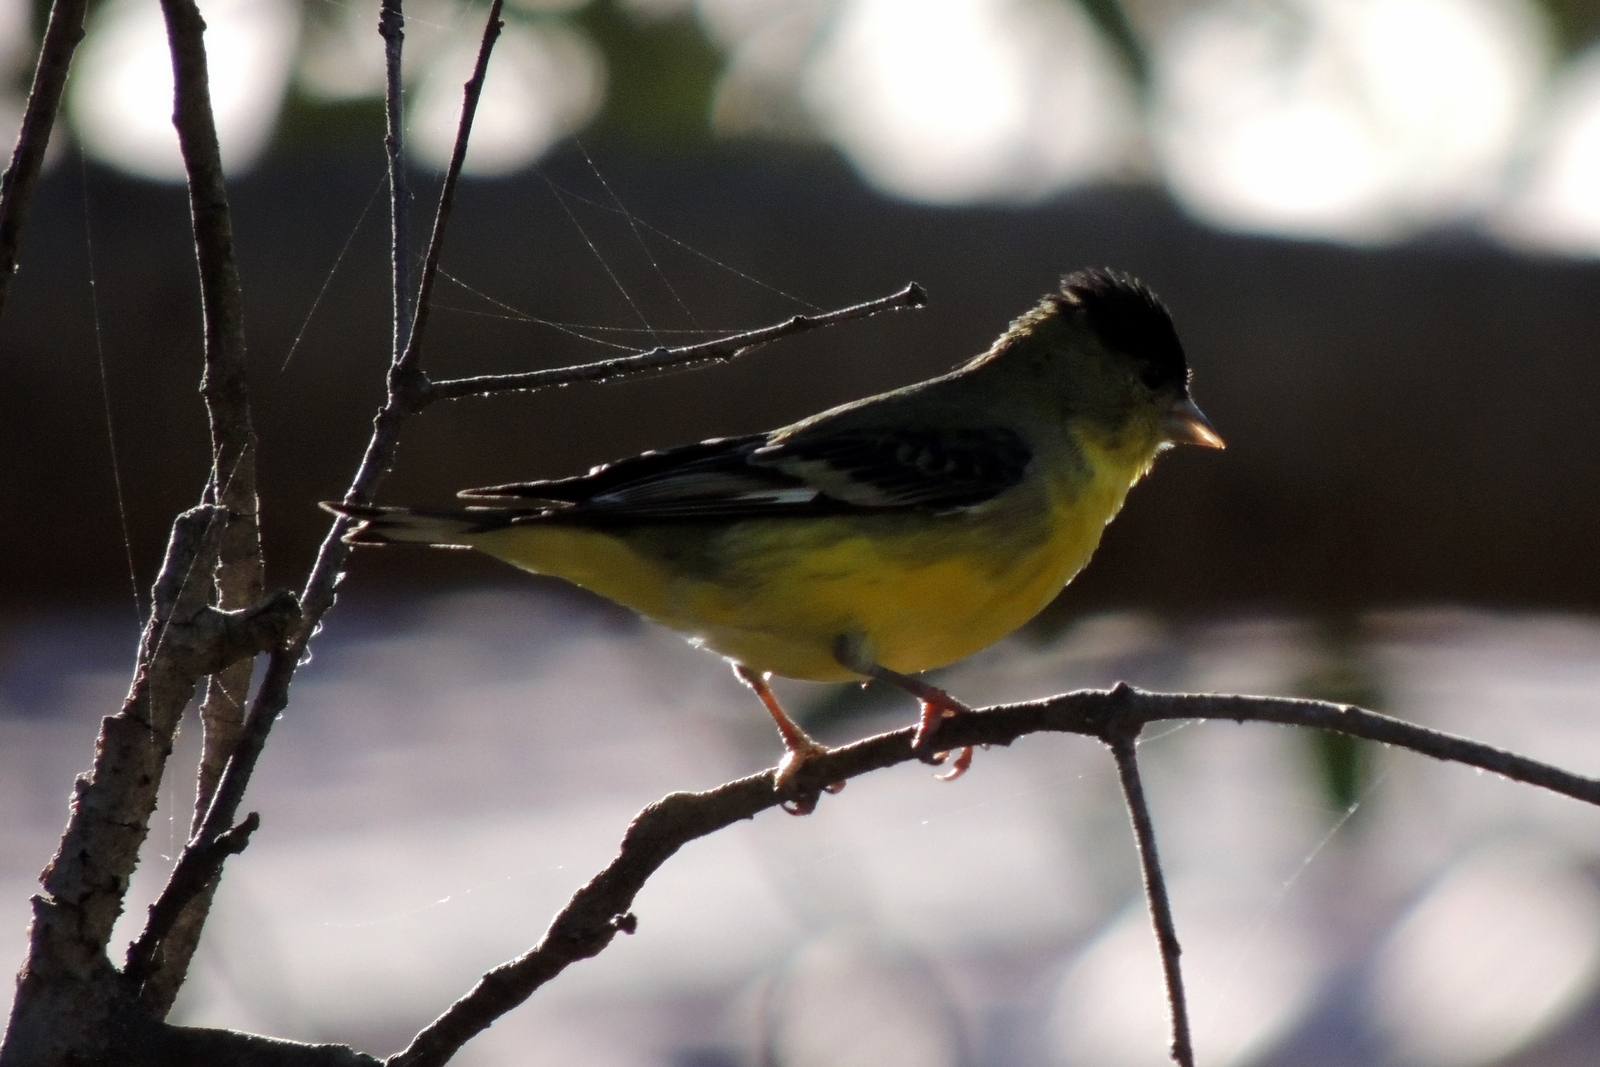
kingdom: Animalia
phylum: Chordata
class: Aves
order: Passeriformes
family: Fringillidae
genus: Spinus
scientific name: Spinus psaltria
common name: Lesser goldfinch
